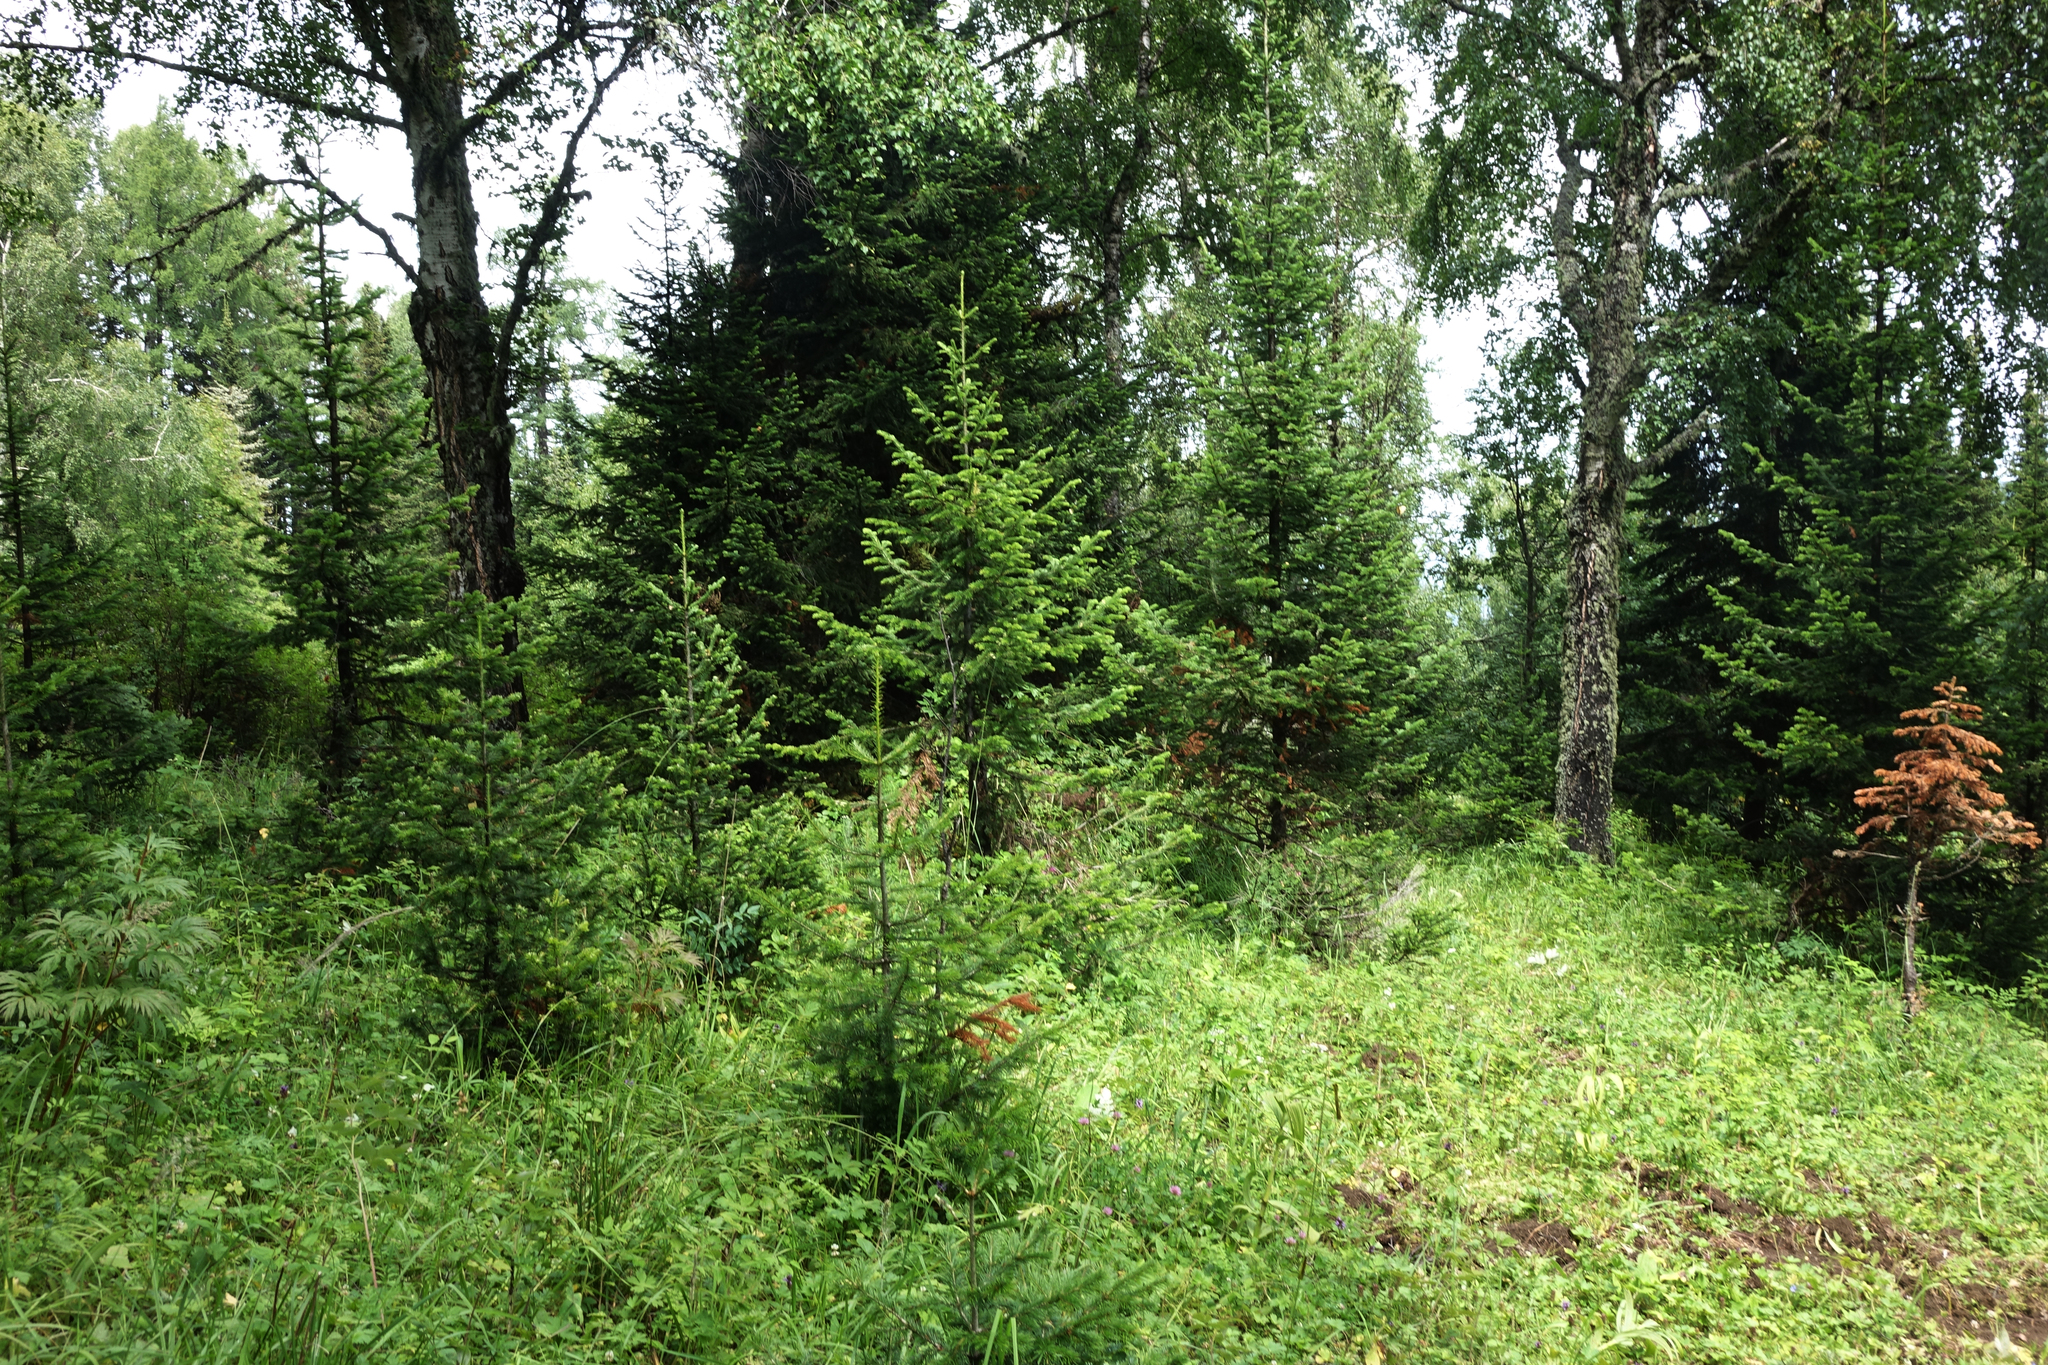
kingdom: Plantae
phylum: Tracheophyta
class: Pinopsida
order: Pinales
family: Pinaceae
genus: Abies
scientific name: Abies sibirica
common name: Siberian fir
